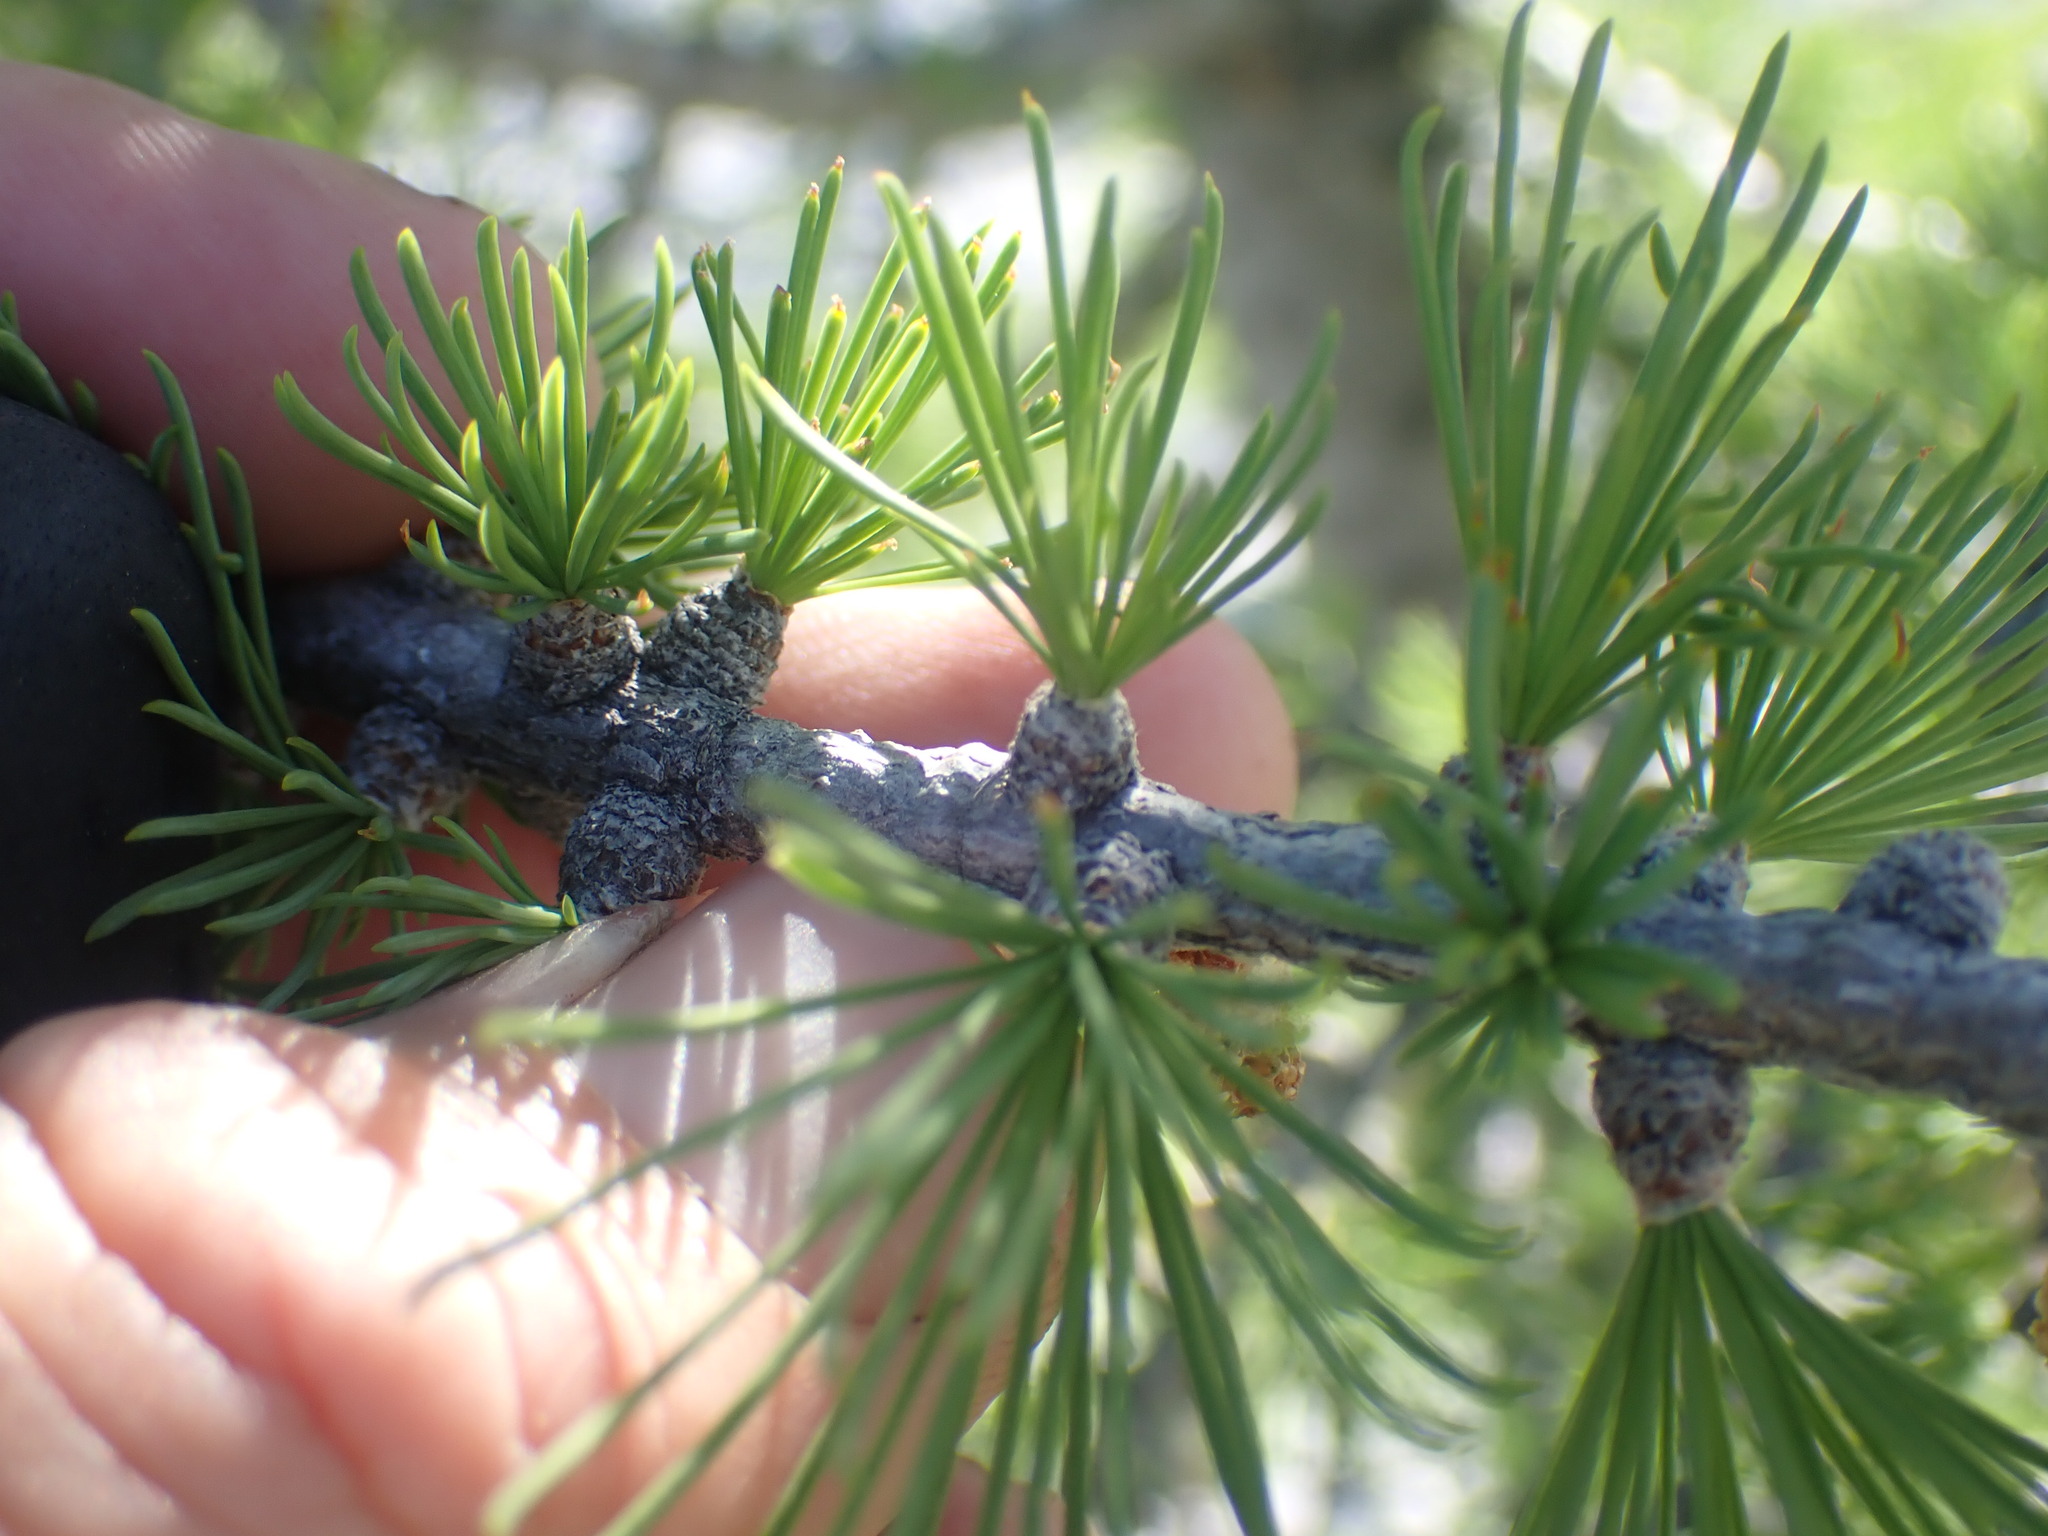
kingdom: Plantae
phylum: Tracheophyta
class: Pinopsida
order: Pinales
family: Pinaceae
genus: Larix
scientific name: Larix lyallii
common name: Alpine larch
